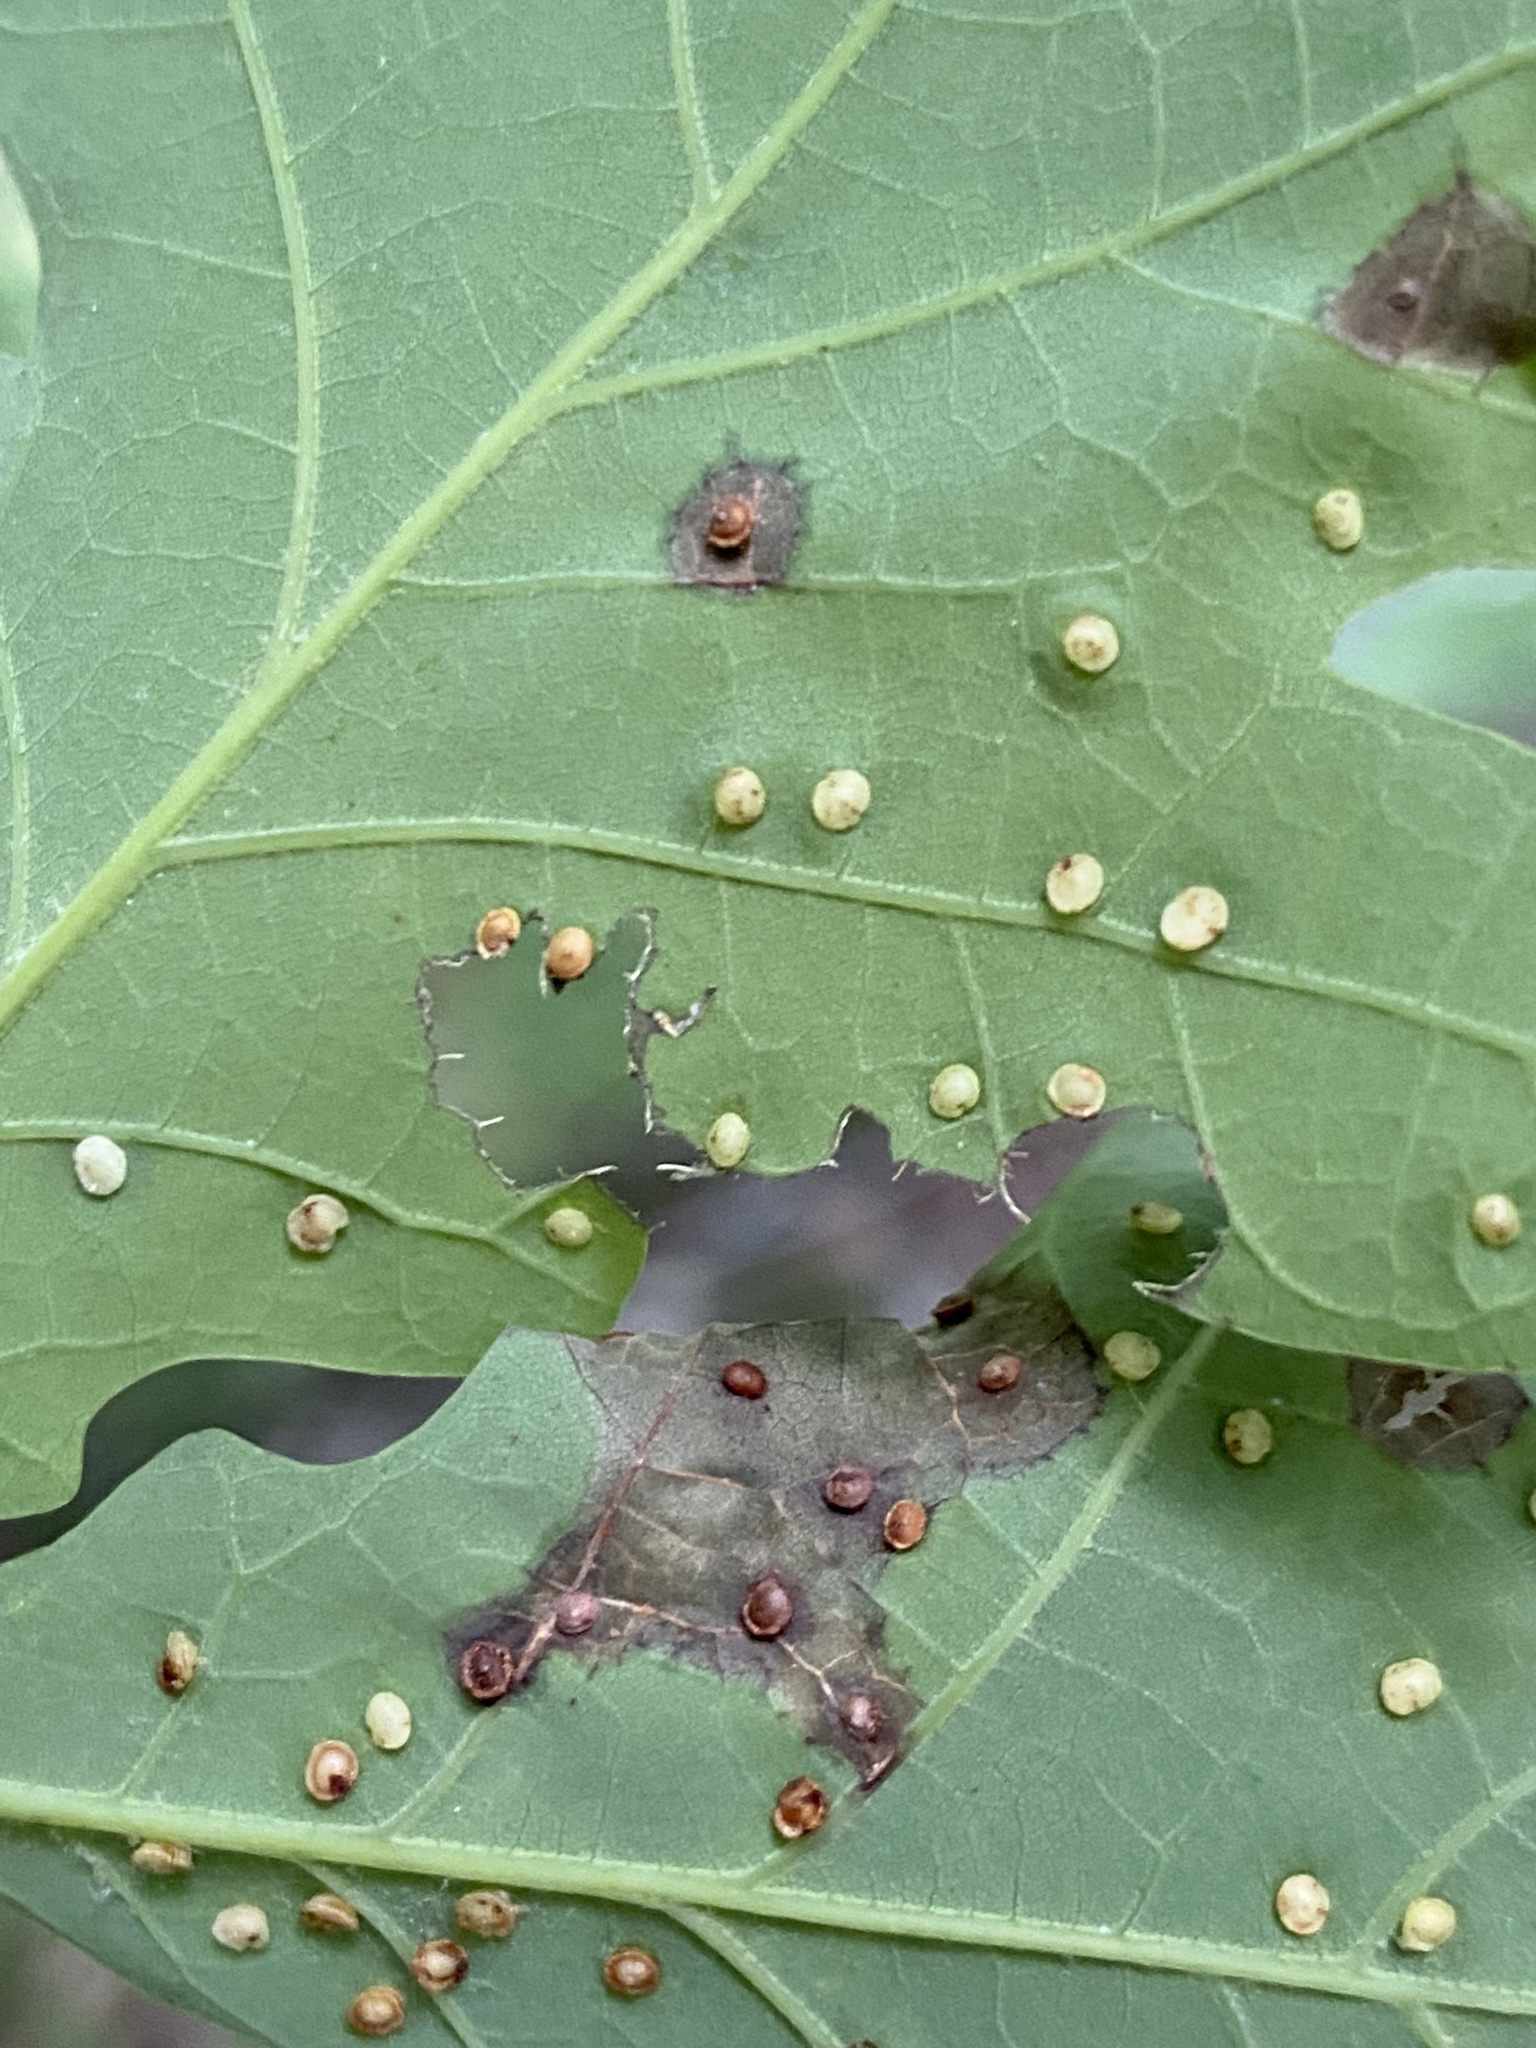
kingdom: Animalia
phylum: Arthropoda
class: Insecta
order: Hymenoptera
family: Cynipidae
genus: Neuroterus
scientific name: Neuroterus
